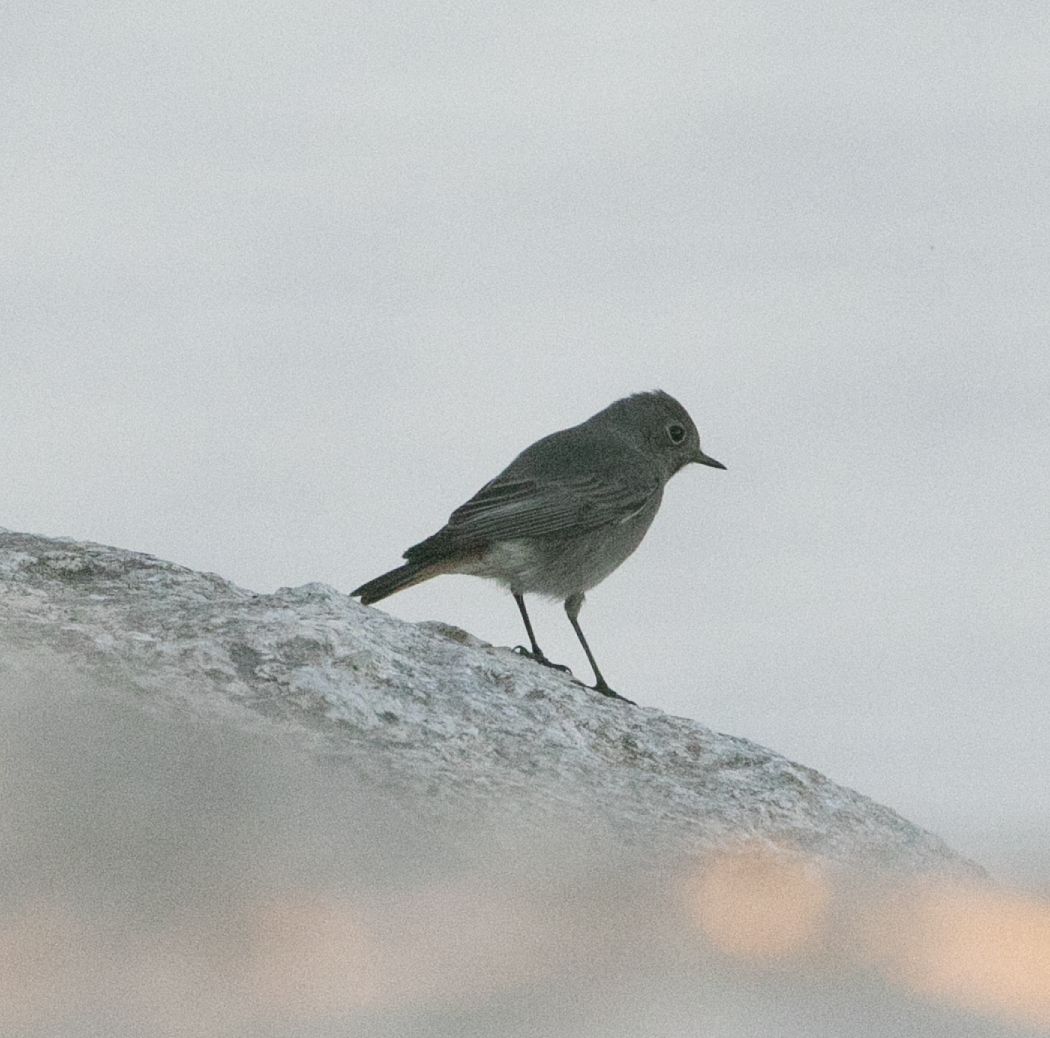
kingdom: Animalia
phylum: Chordata
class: Aves
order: Passeriformes
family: Muscicapidae
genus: Phoenicurus
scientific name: Phoenicurus ochruros
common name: Black redstart
